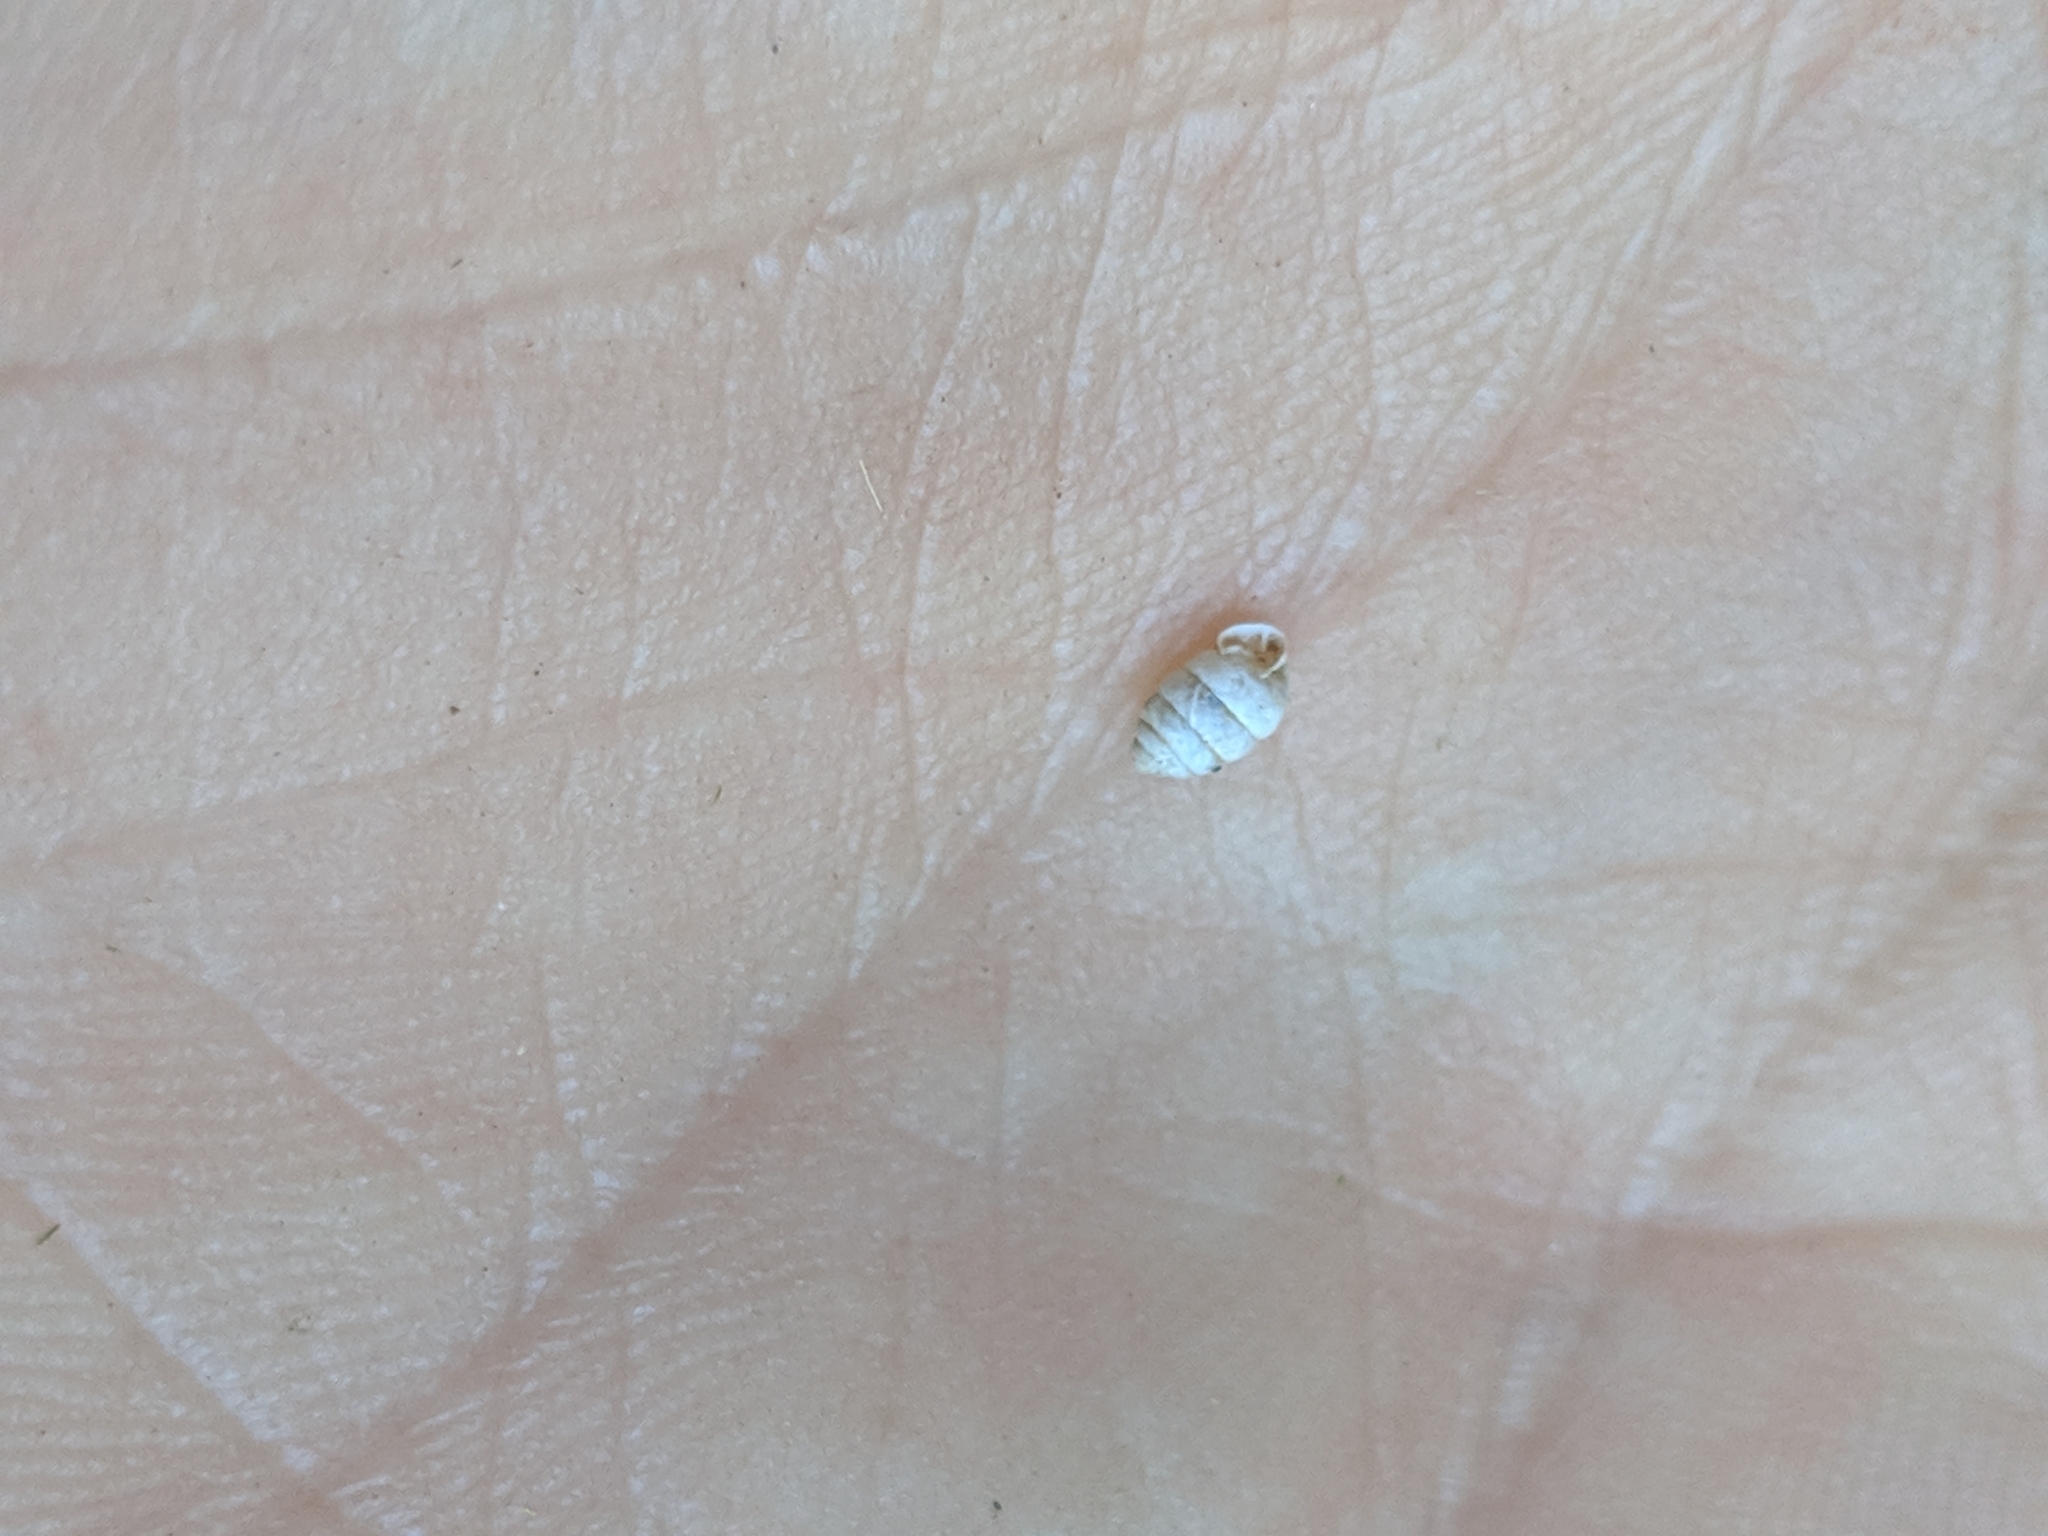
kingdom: Animalia
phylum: Mollusca
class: Gastropoda
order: Stylommatophora
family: Gastrocoptidae
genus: Gastrocopta
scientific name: Gastrocopta armifera
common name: Armed snaggletooth
